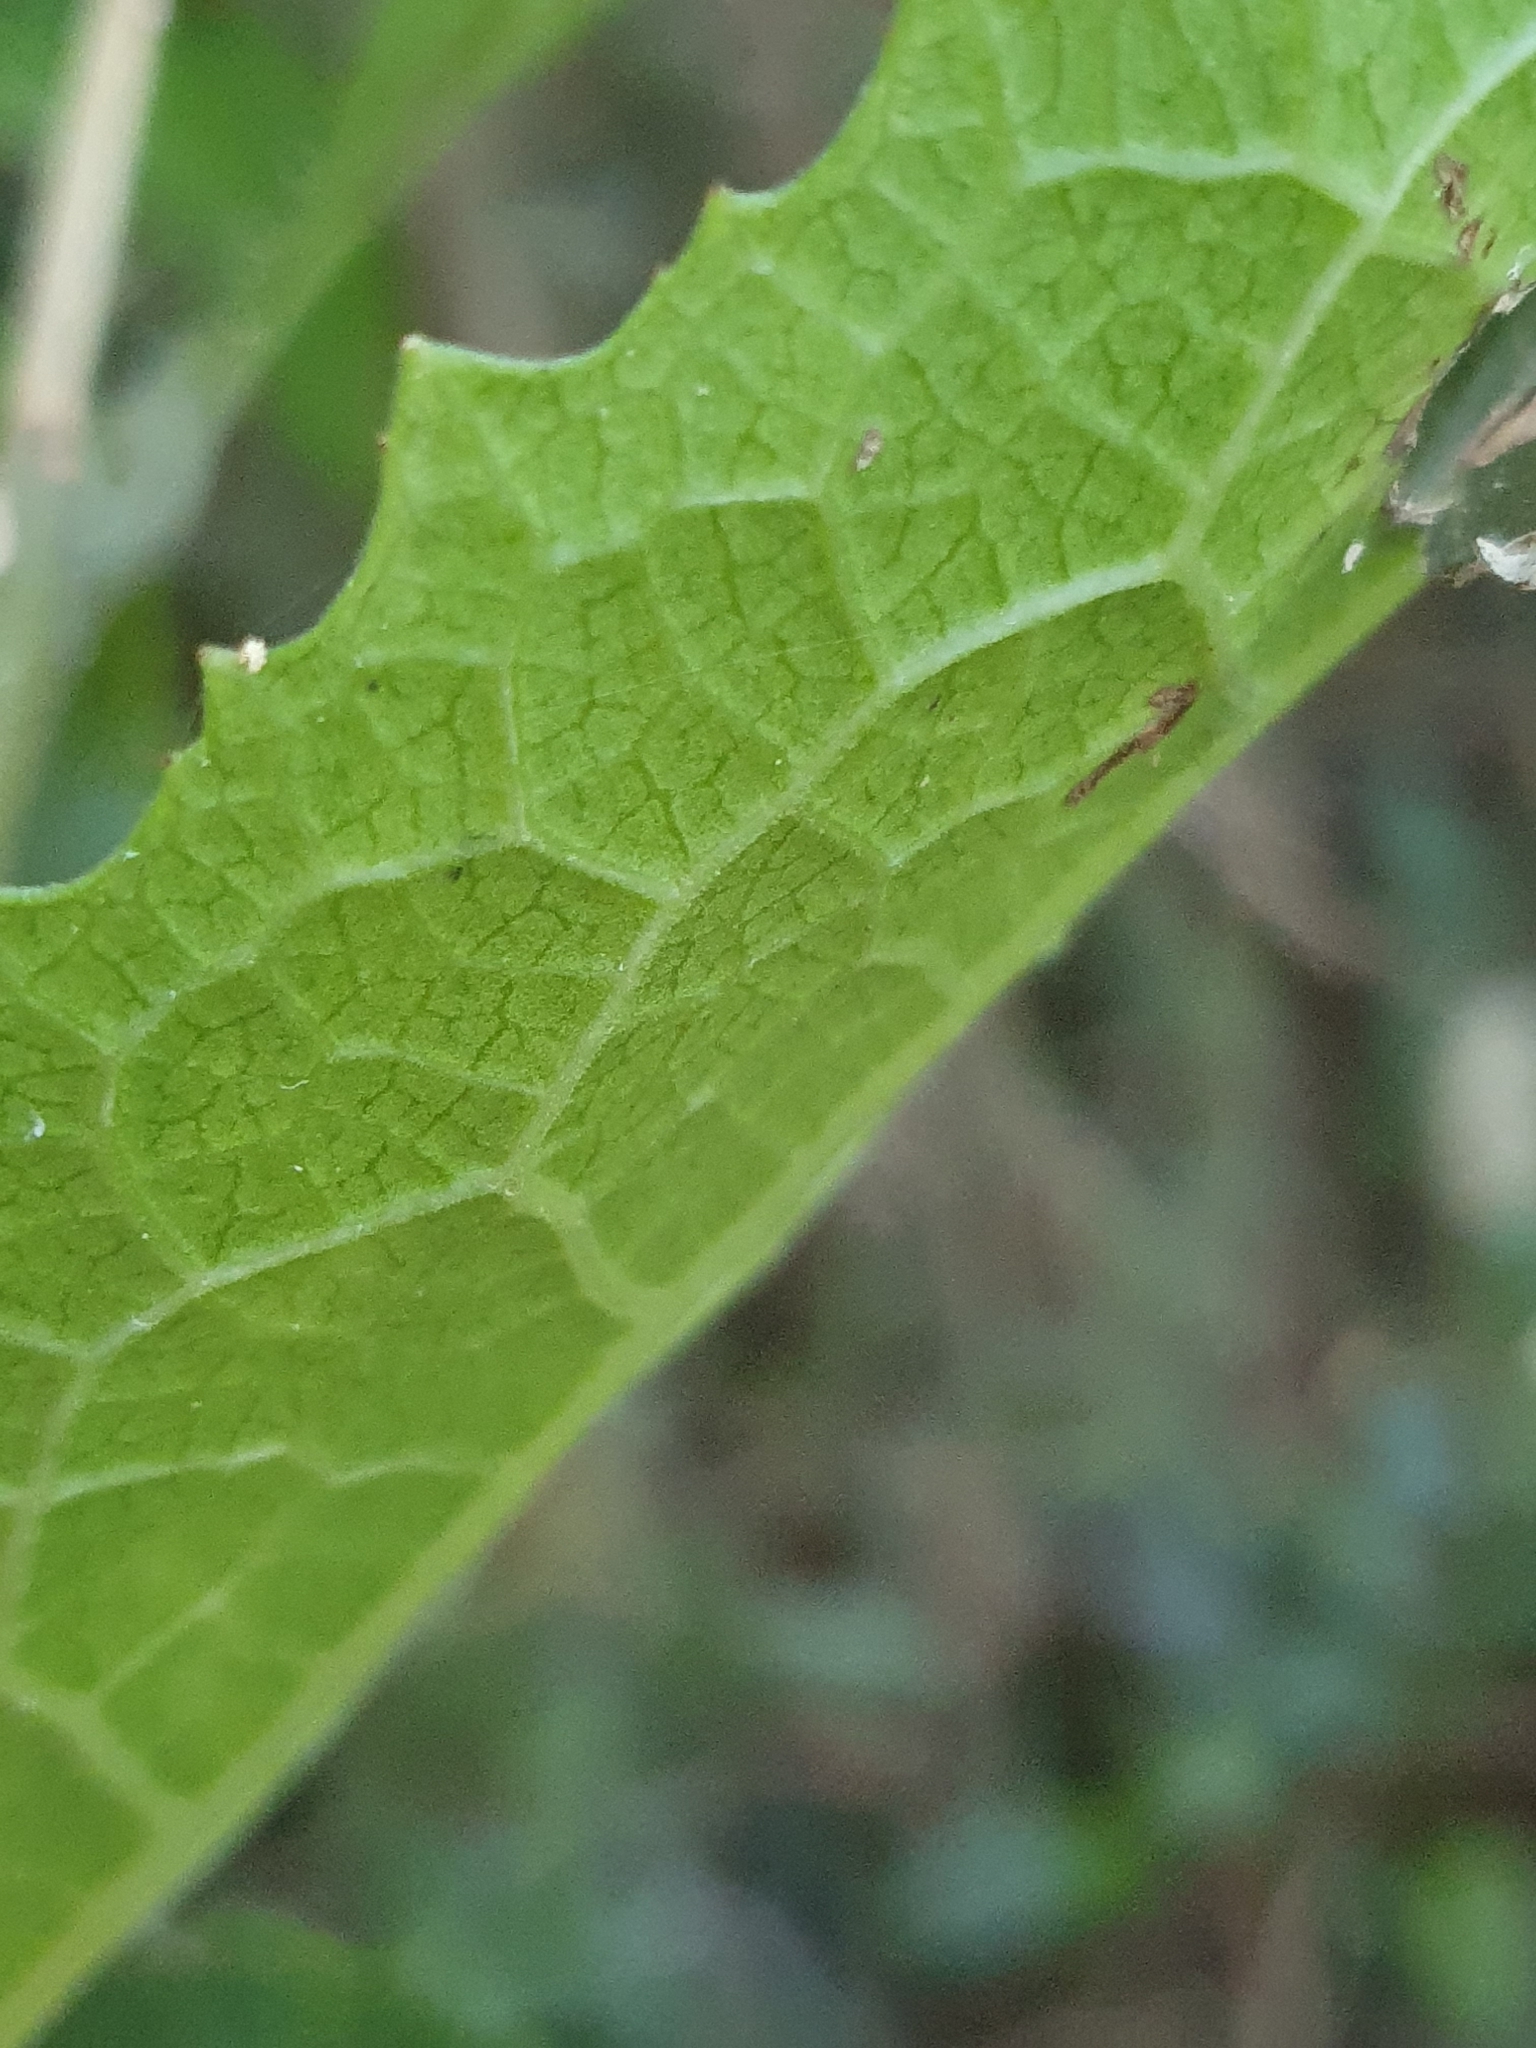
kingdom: Plantae
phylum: Tracheophyta
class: Magnoliopsida
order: Laurales
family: Monimiaceae
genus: Wilkiea
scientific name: Wilkiea hugeliana
